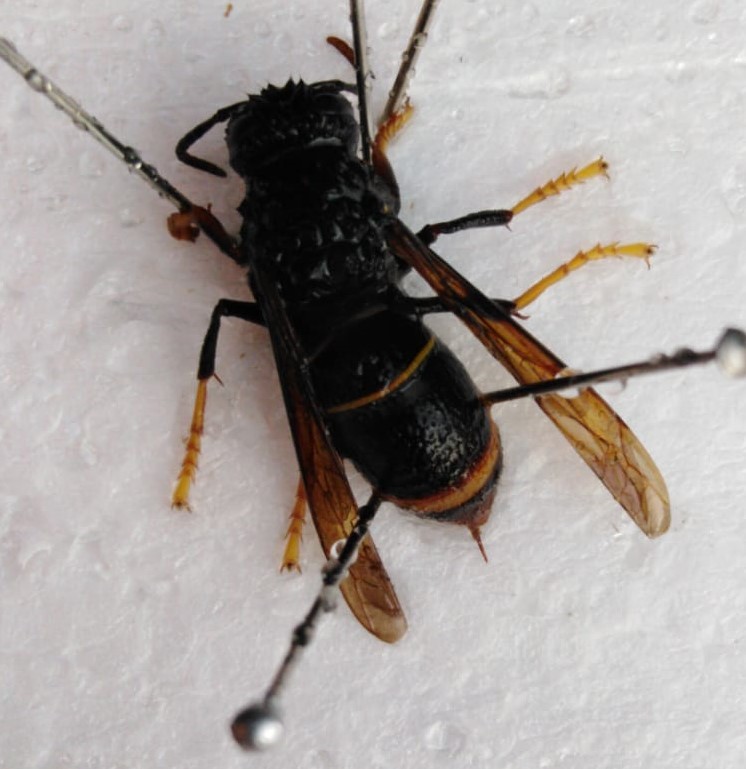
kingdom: Animalia
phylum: Arthropoda
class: Insecta
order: Hymenoptera
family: Vespidae
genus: Vespa
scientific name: Vespa velutina
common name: Asian hornet
